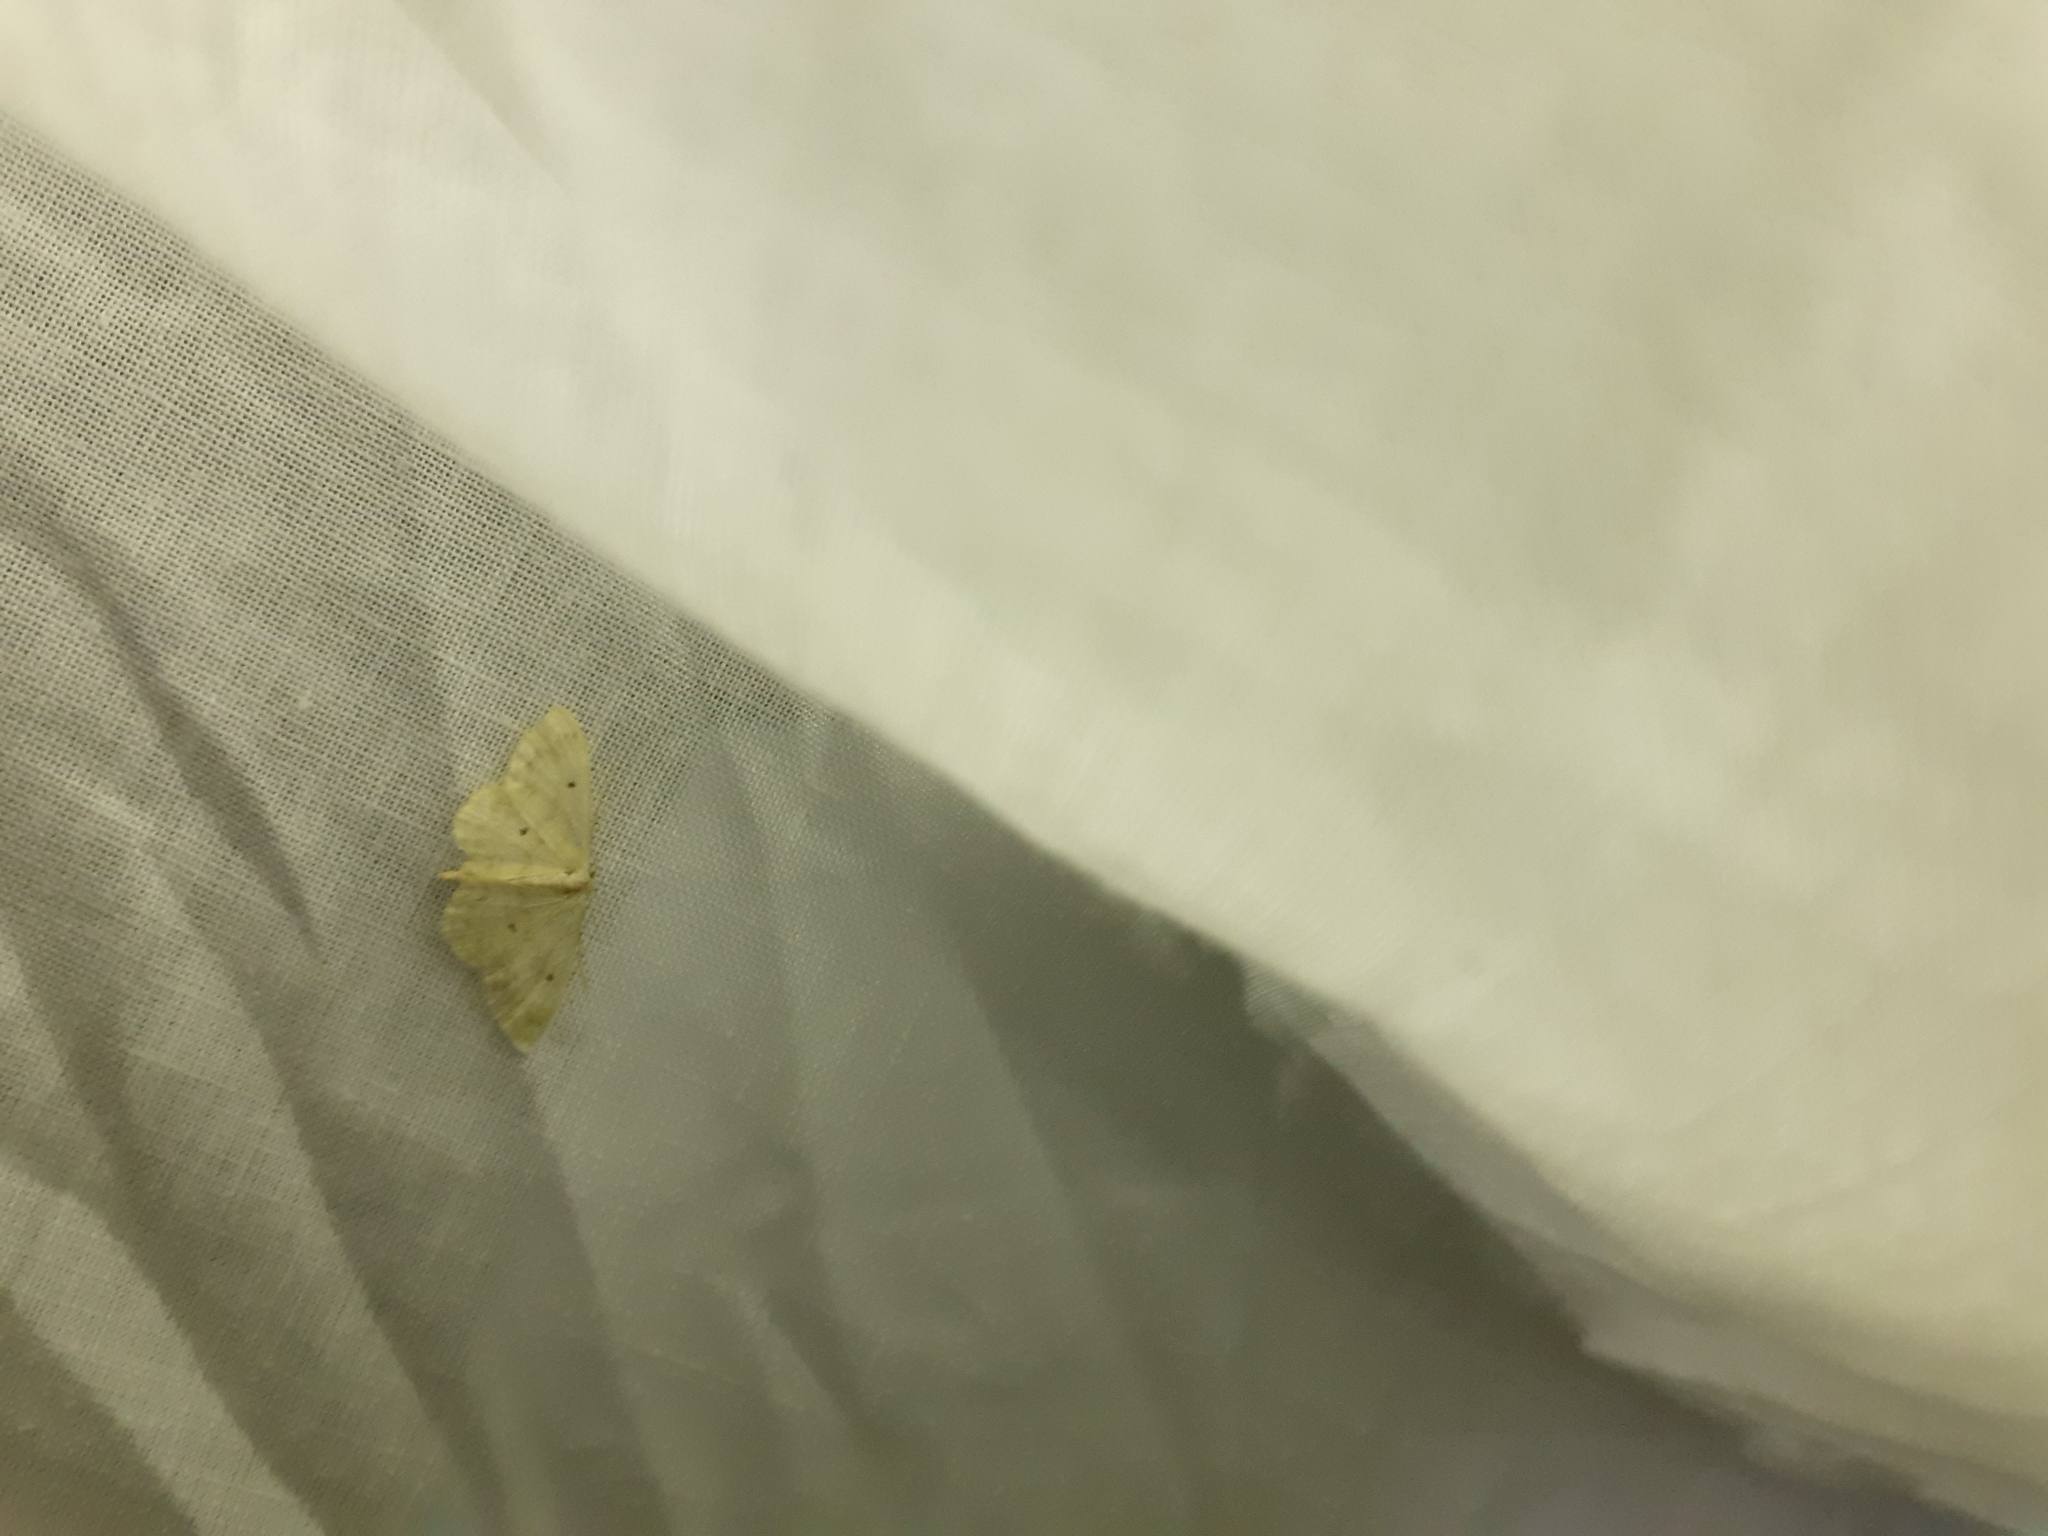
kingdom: Animalia
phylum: Arthropoda
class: Insecta
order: Lepidoptera
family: Geometridae
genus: Idaea
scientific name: Idaea biselata
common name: Small fan-footed wave
